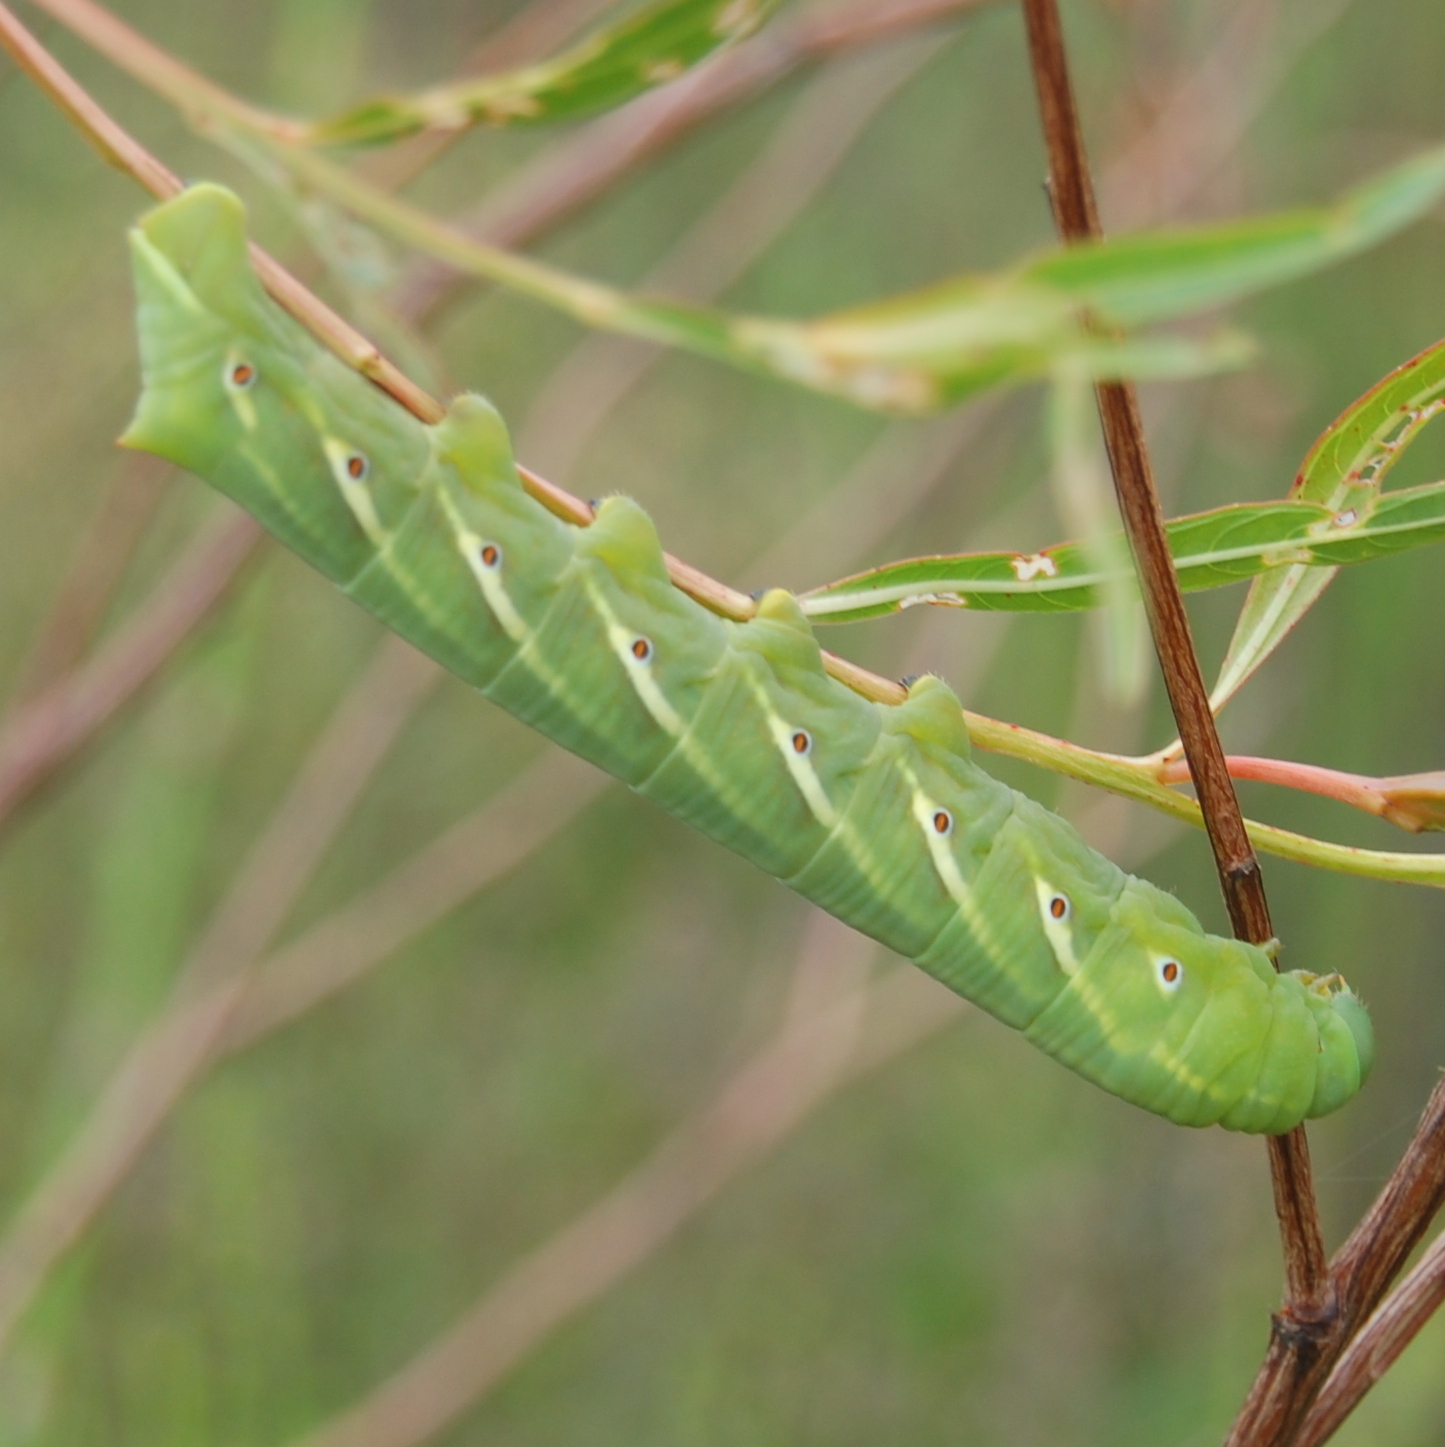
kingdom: Animalia
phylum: Arthropoda
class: Insecta
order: Lepidoptera
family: Sphingidae
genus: Eumorpha
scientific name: Eumorpha fasciatus
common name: Banded sphinx
